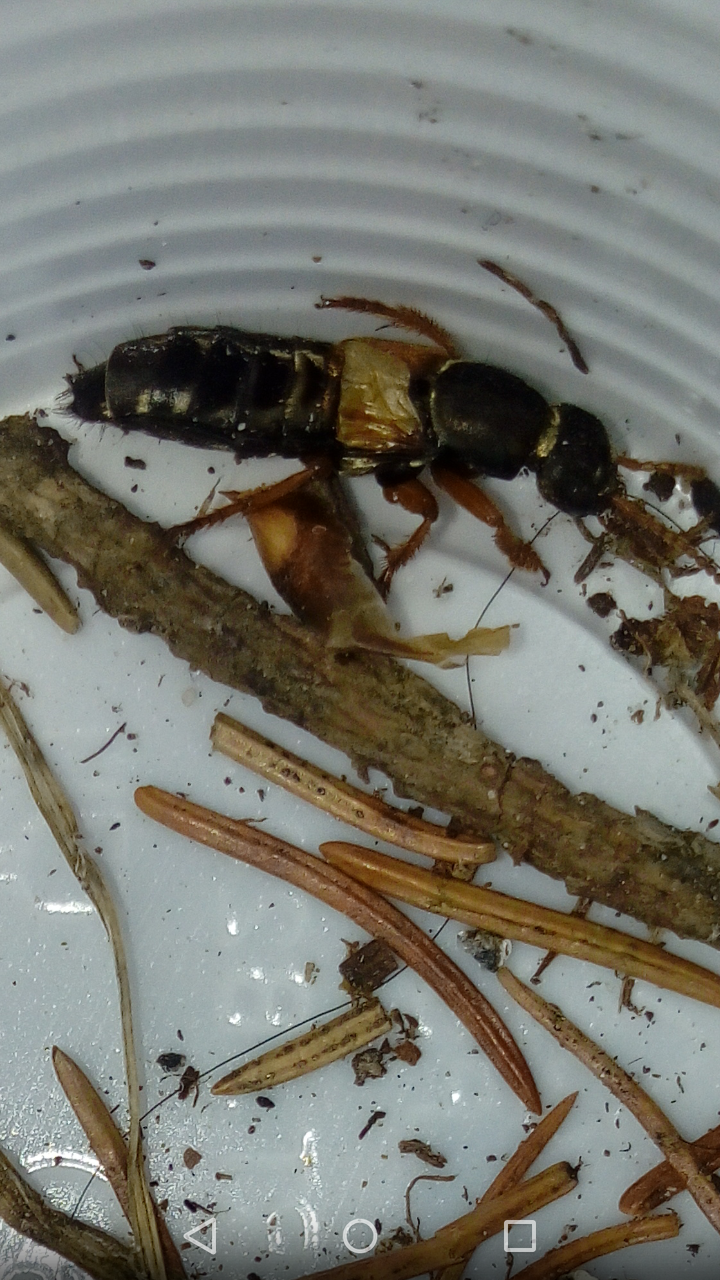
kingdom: Animalia
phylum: Arthropoda
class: Insecta
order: Coleoptera
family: Staphylinidae
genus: Staphylinus
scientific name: Staphylinus caesareus
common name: Staph beetle
